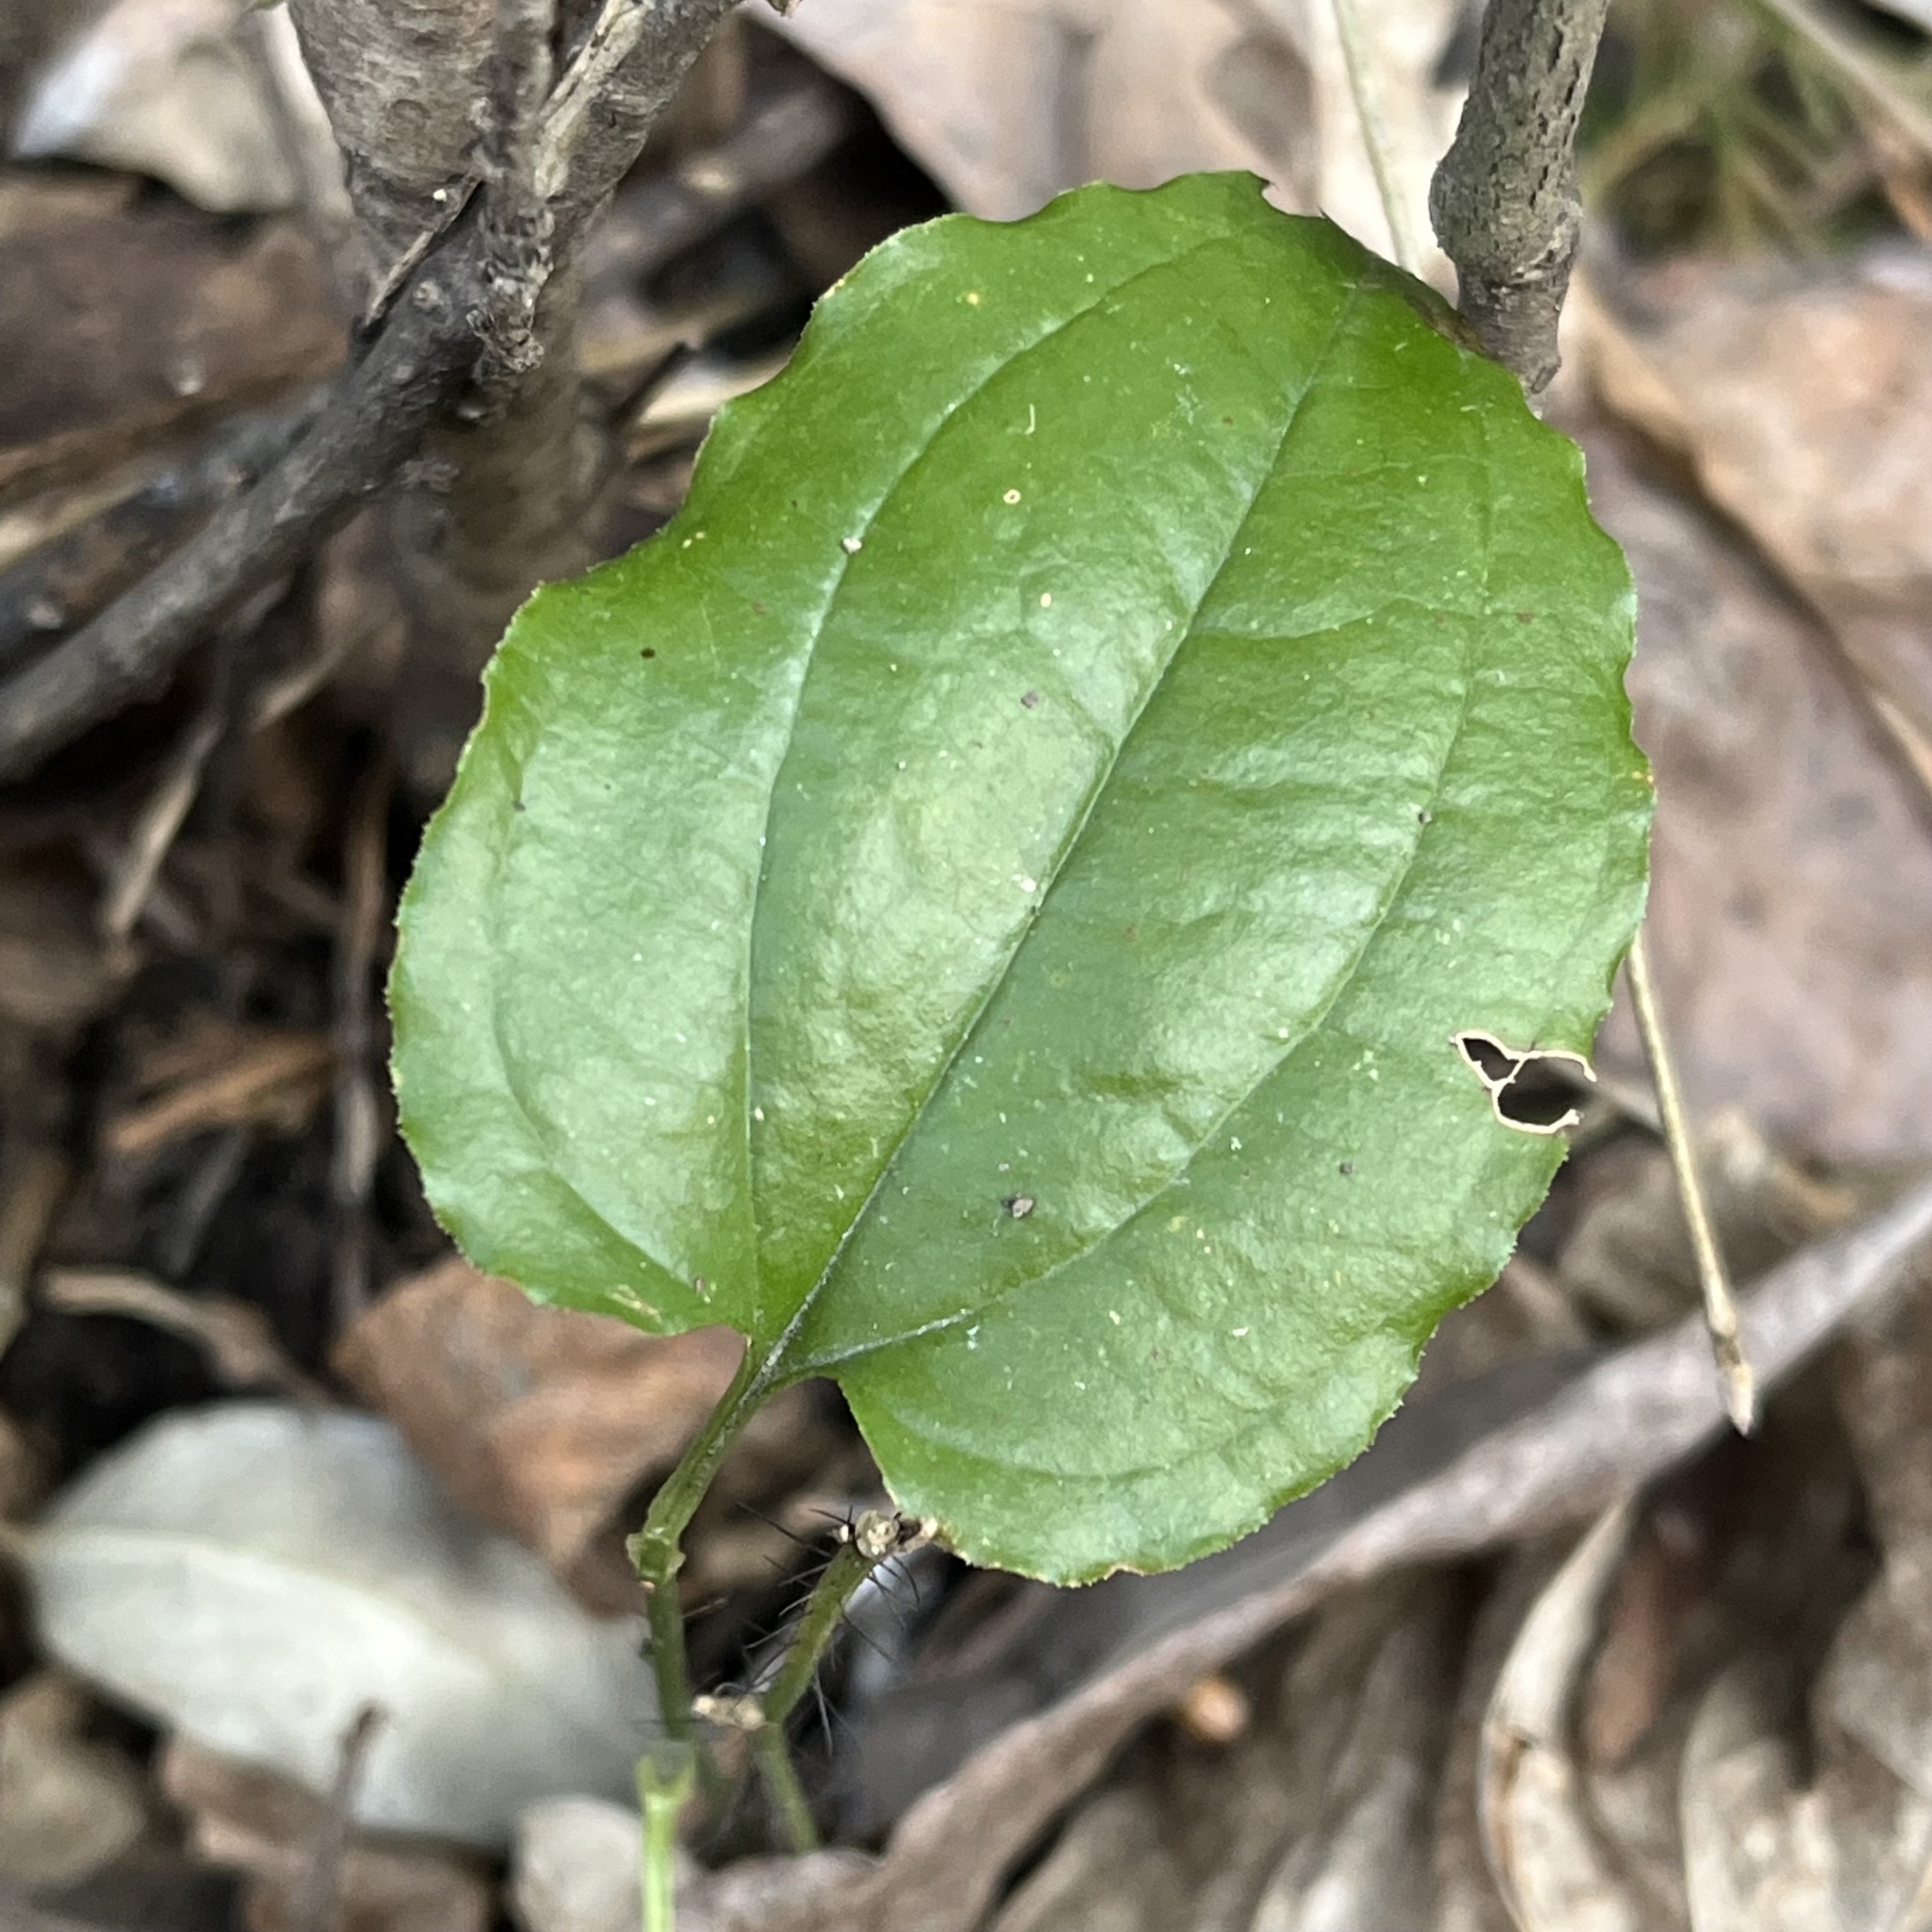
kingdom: Plantae
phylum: Tracheophyta
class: Liliopsida
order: Liliales
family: Smilacaceae
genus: Smilax
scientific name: Smilax tamnoides
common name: Hellfetter
